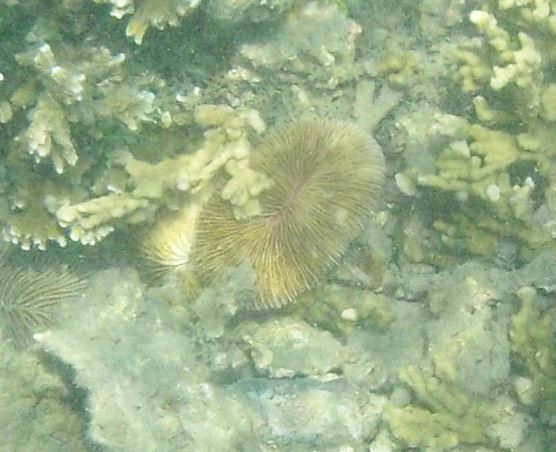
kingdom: Animalia
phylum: Cnidaria
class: Anthozoa
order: Scleractinia
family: Fungiidae
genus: Pleuractis
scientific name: Pleuractis paumotensis
